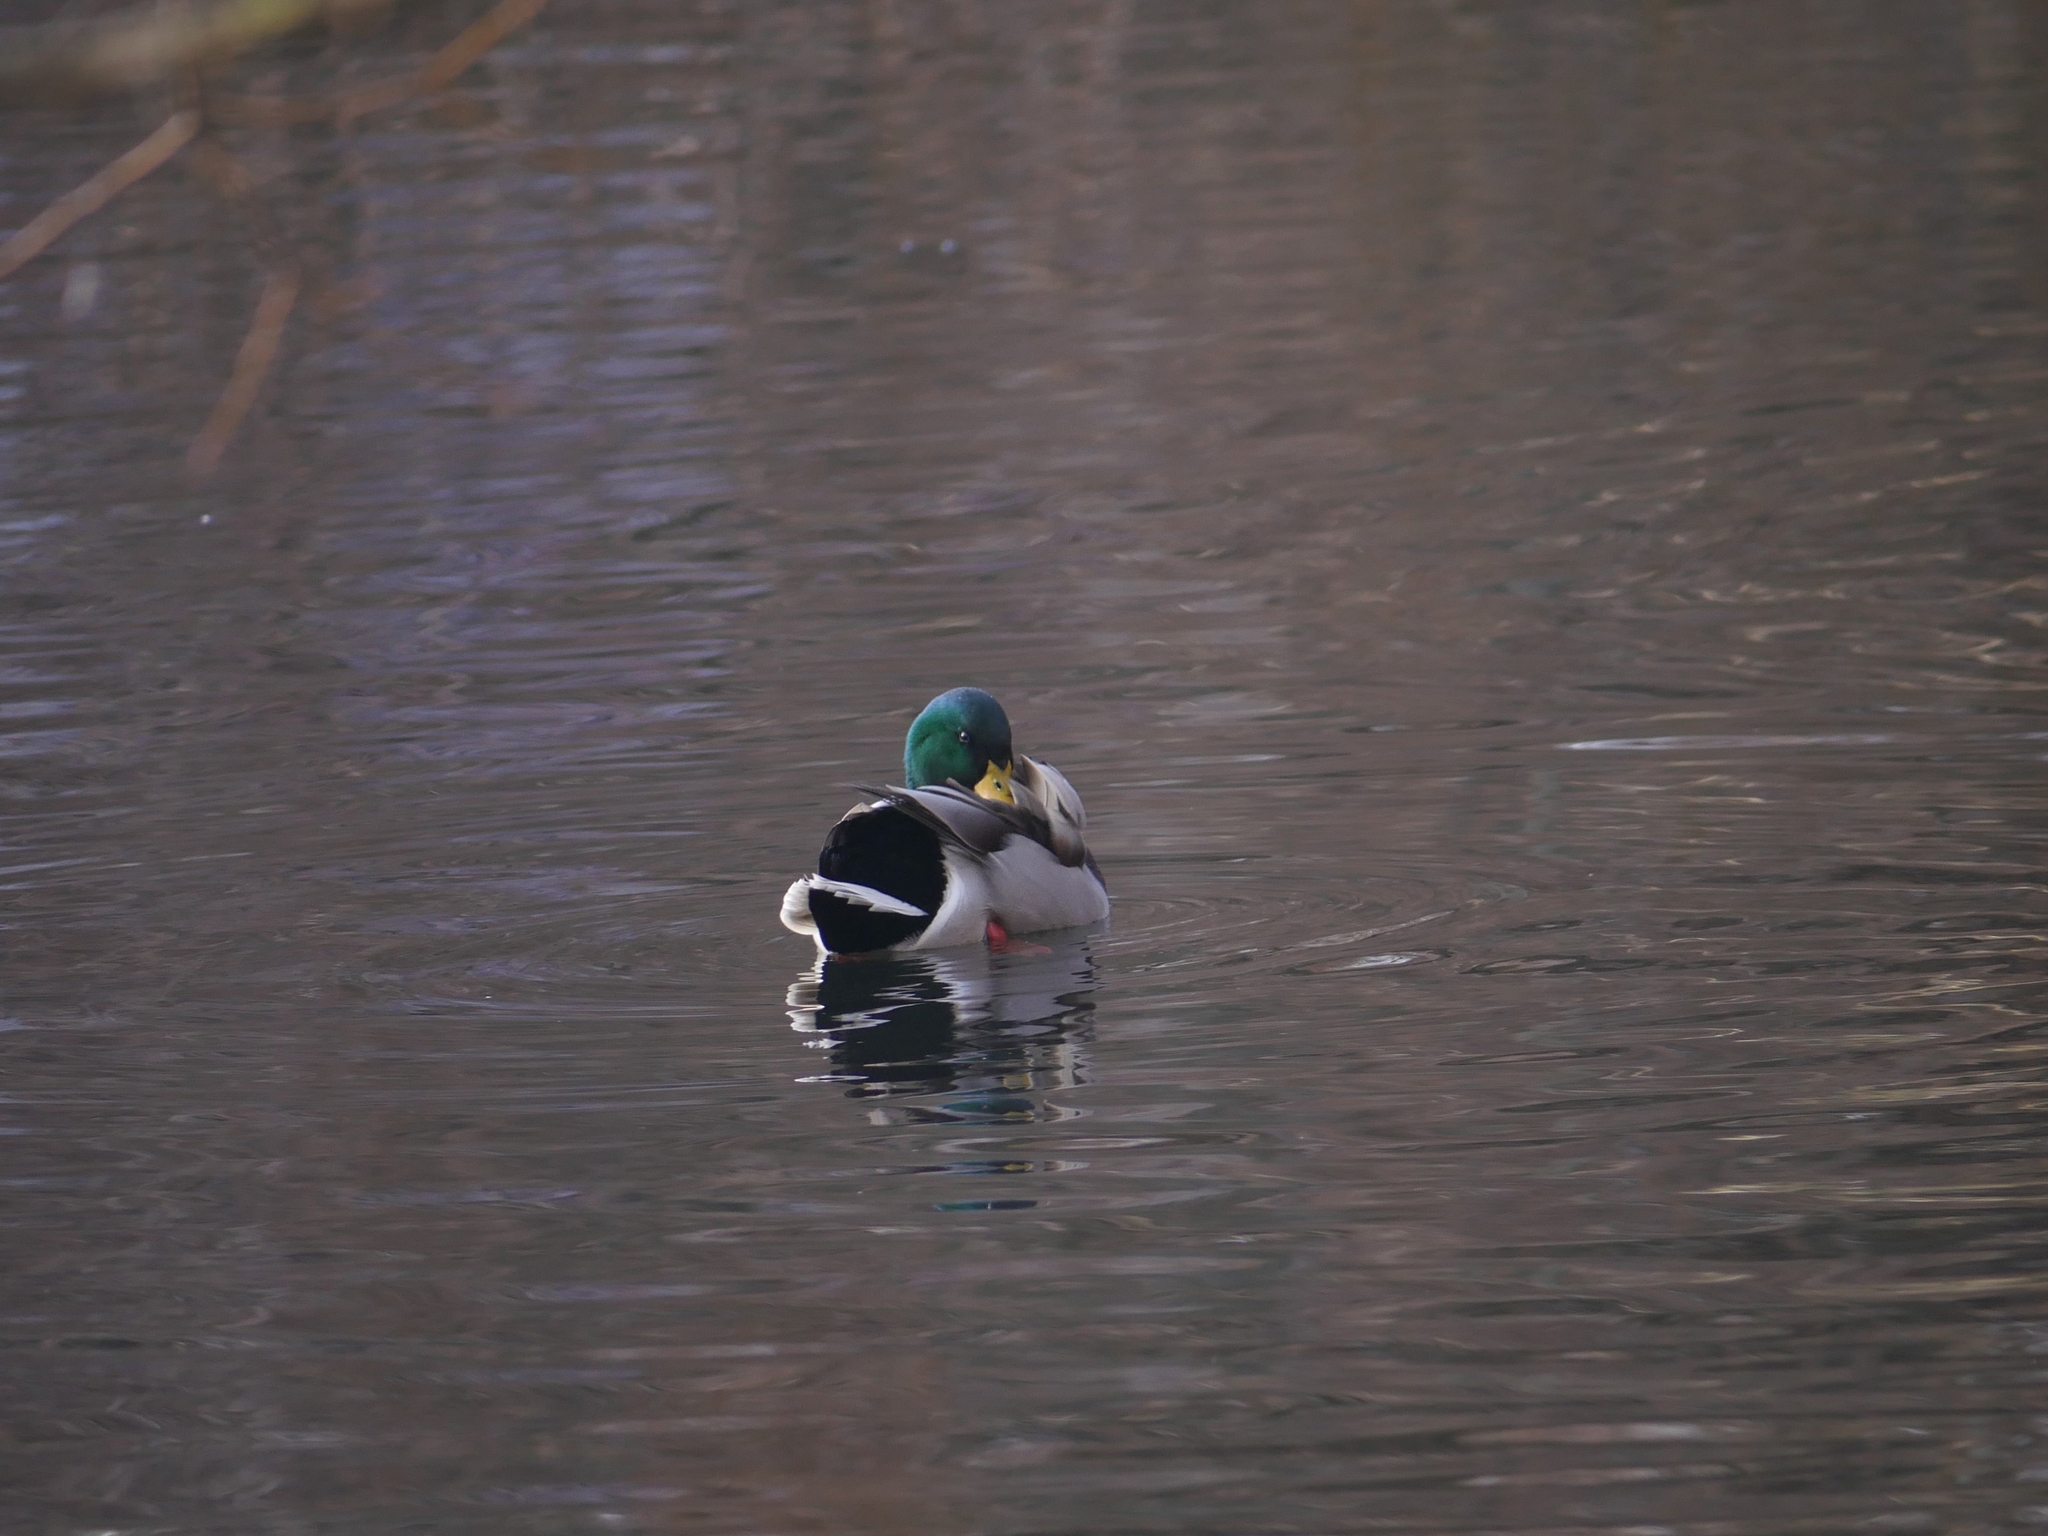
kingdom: Animalia
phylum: Chordata
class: Aves
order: Anseriformes
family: Anatidae
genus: Anas
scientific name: Anas platyrhynchos
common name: Mallard
